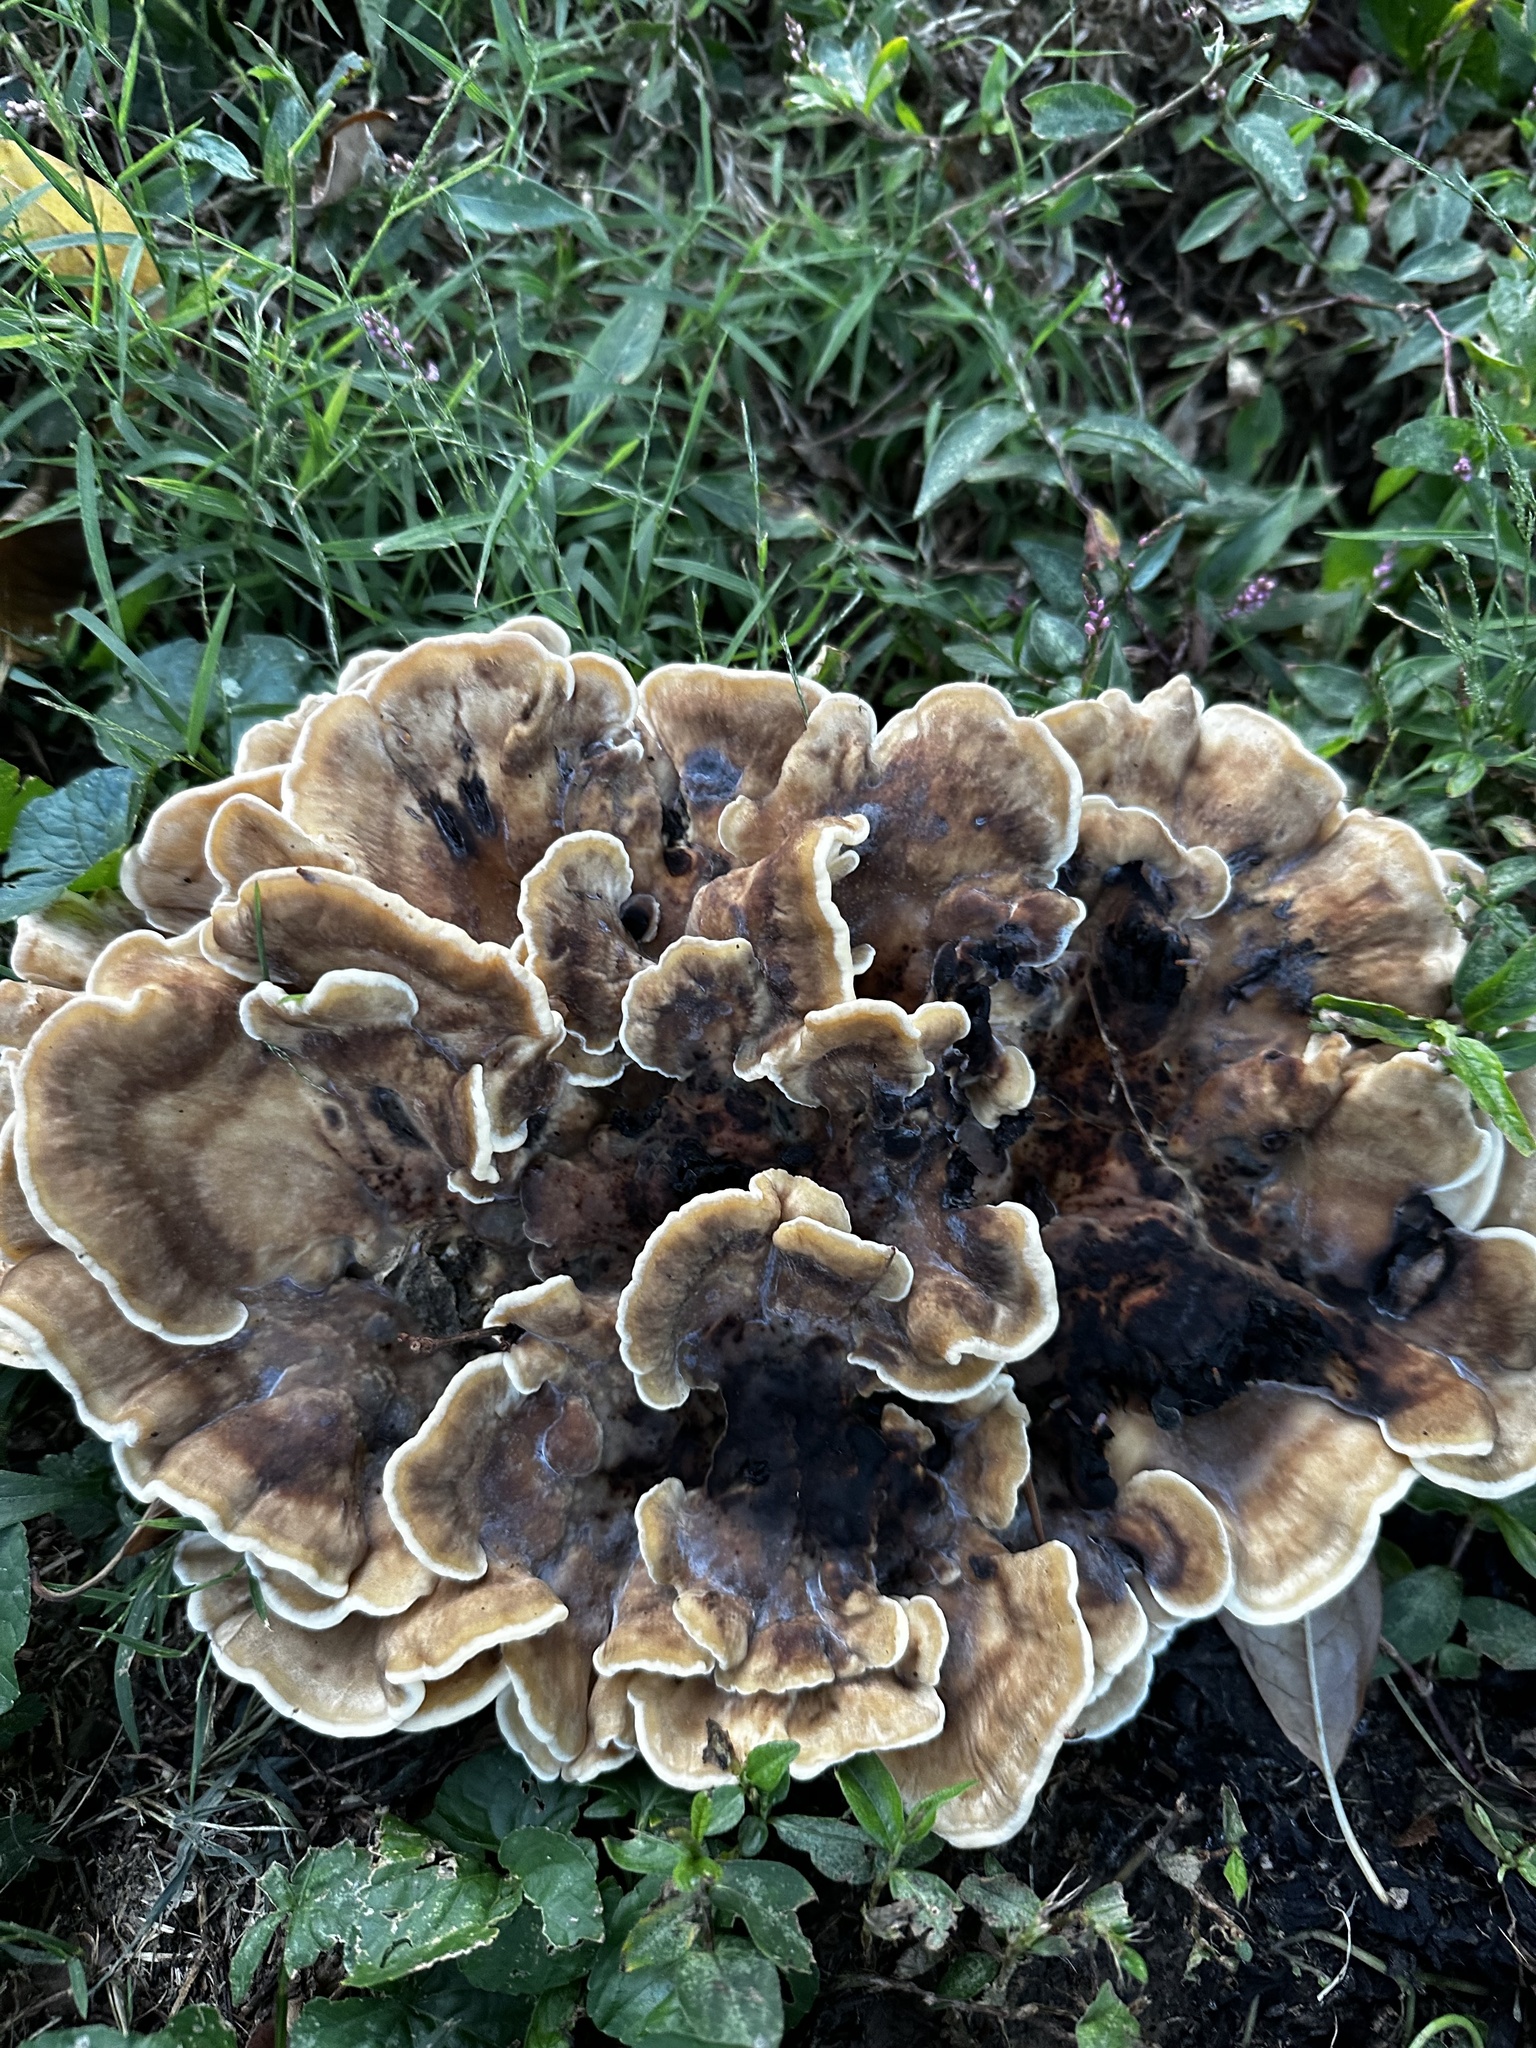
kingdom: Fungi
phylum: Basidiomycota
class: Agaricomycetes
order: Polyporales
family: Meripilaceae
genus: Meripilus
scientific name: Meripilus sumstinei
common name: Black-staining polypore
